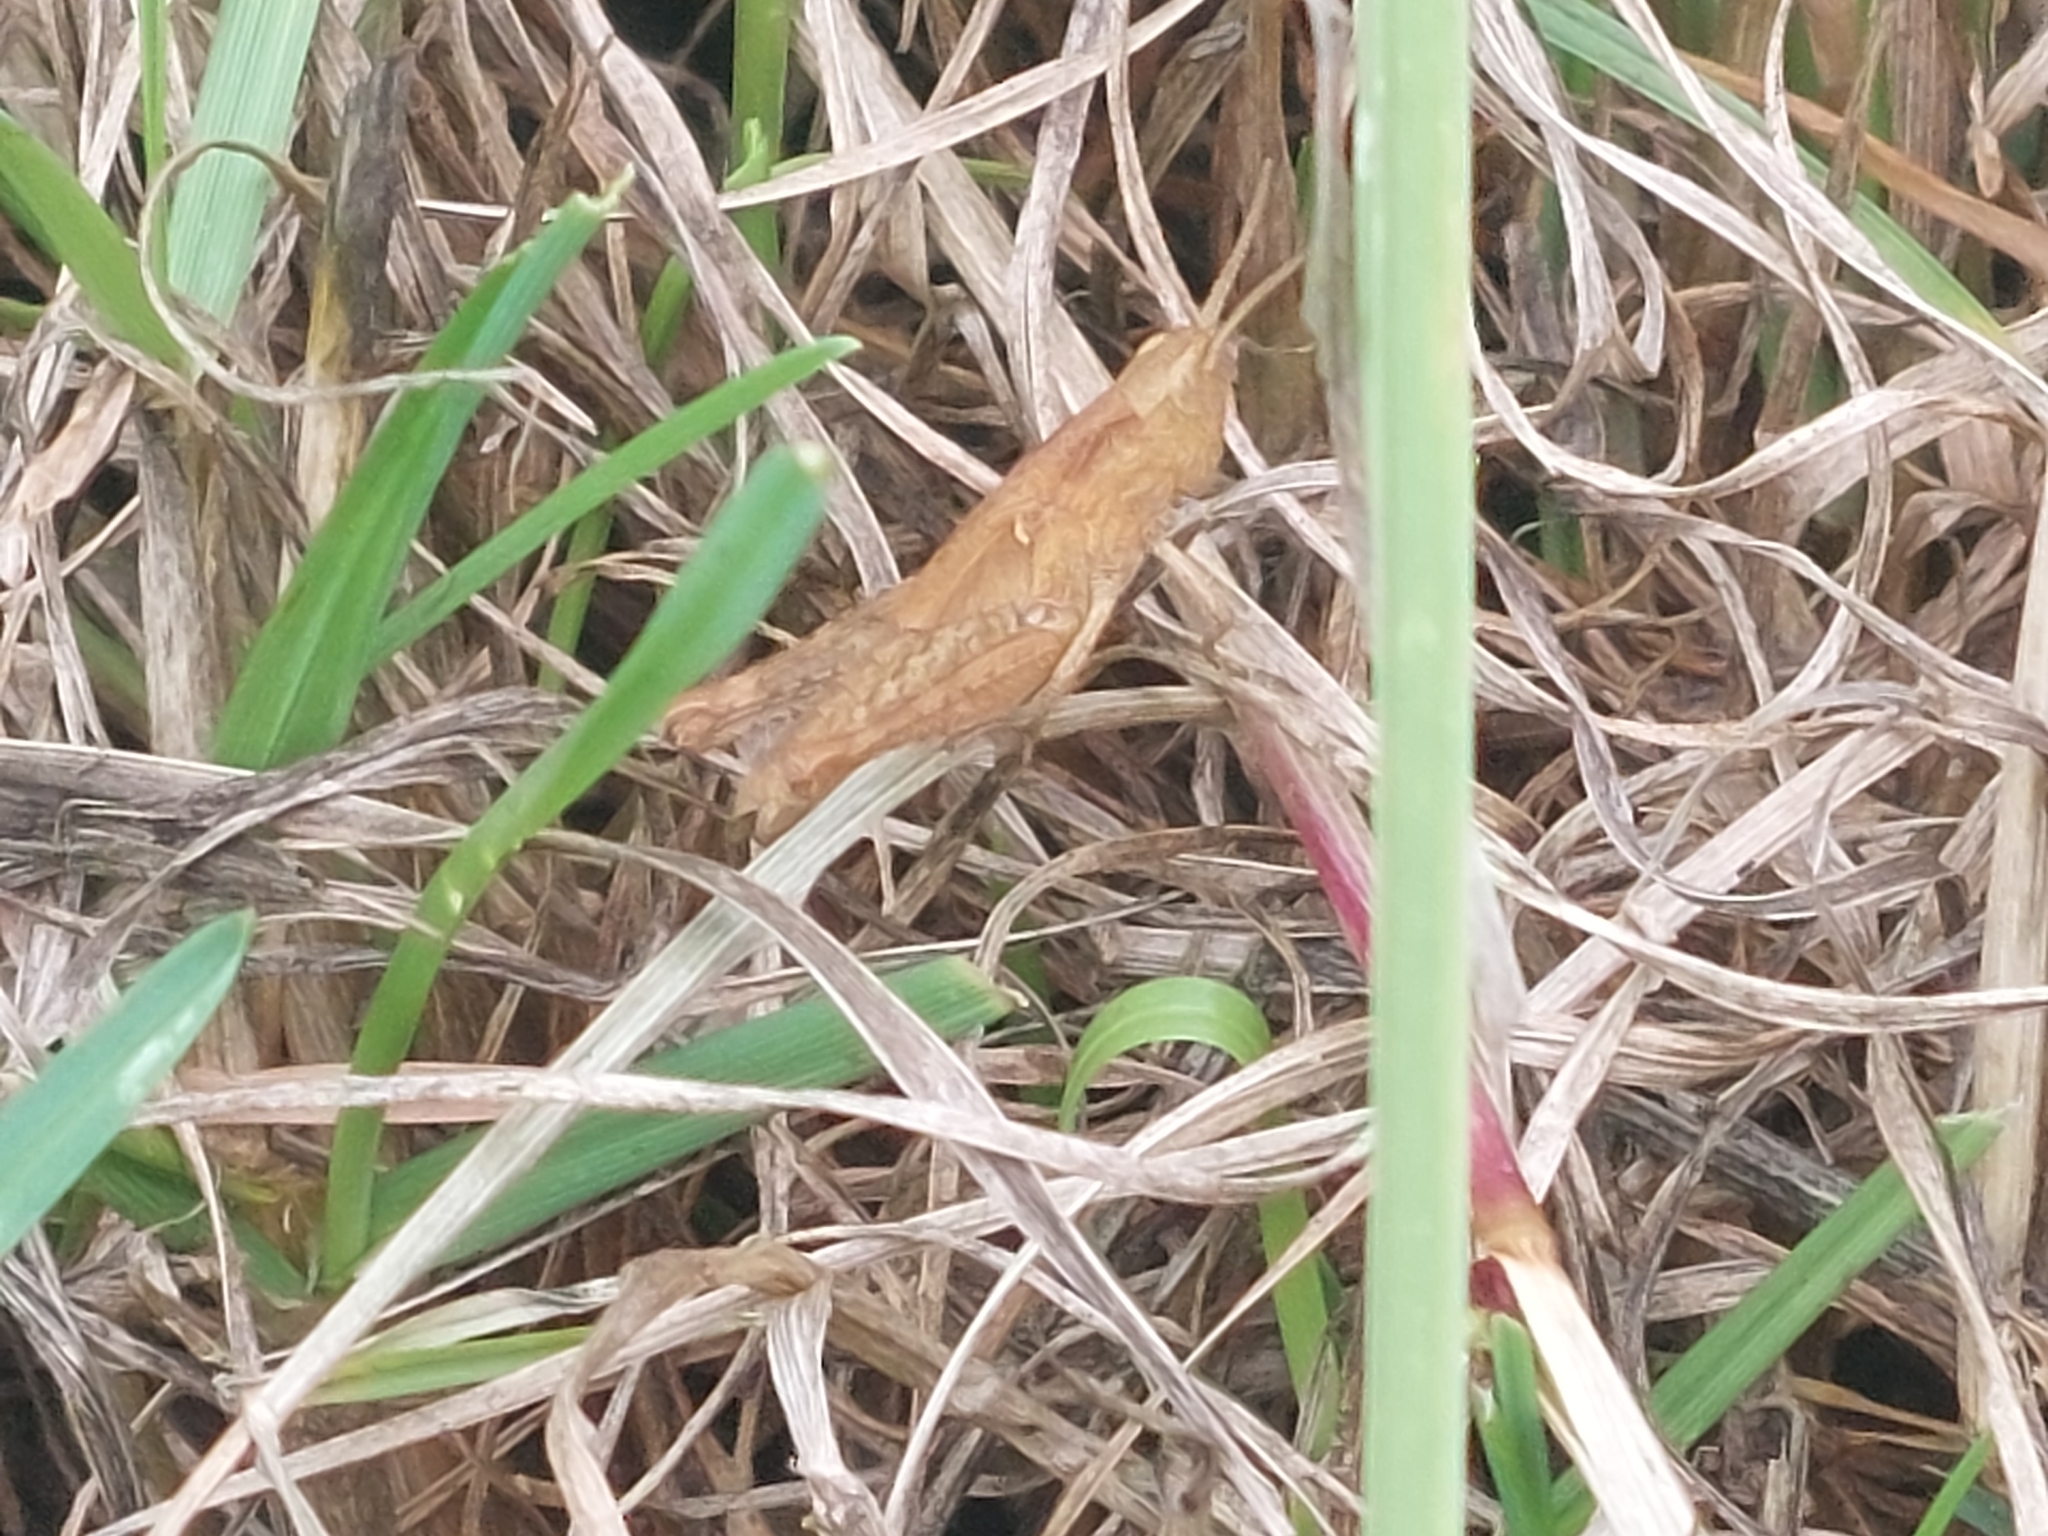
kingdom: Animalia
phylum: Arthropoda
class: Insecta
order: Orthoptera
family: Acrididae
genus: Chorthippus
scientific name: Chorthippus brunneus
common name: Field grasshopper
